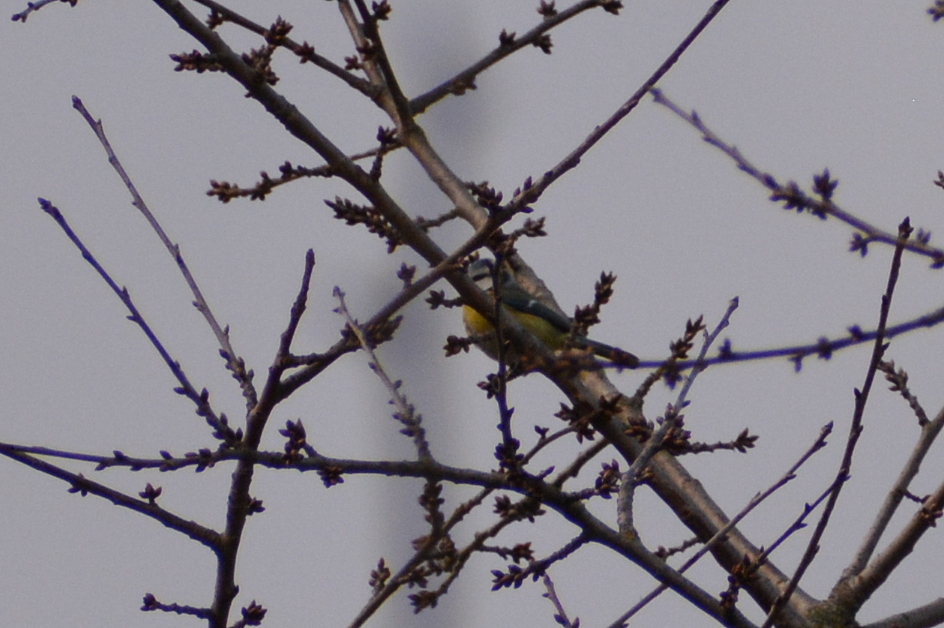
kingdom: Animalia
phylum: Chordata
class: Aves
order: Passeriformes
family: Paridae
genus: Cyanistes
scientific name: Cyanistes caeruleus
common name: Eurasian blue tit
